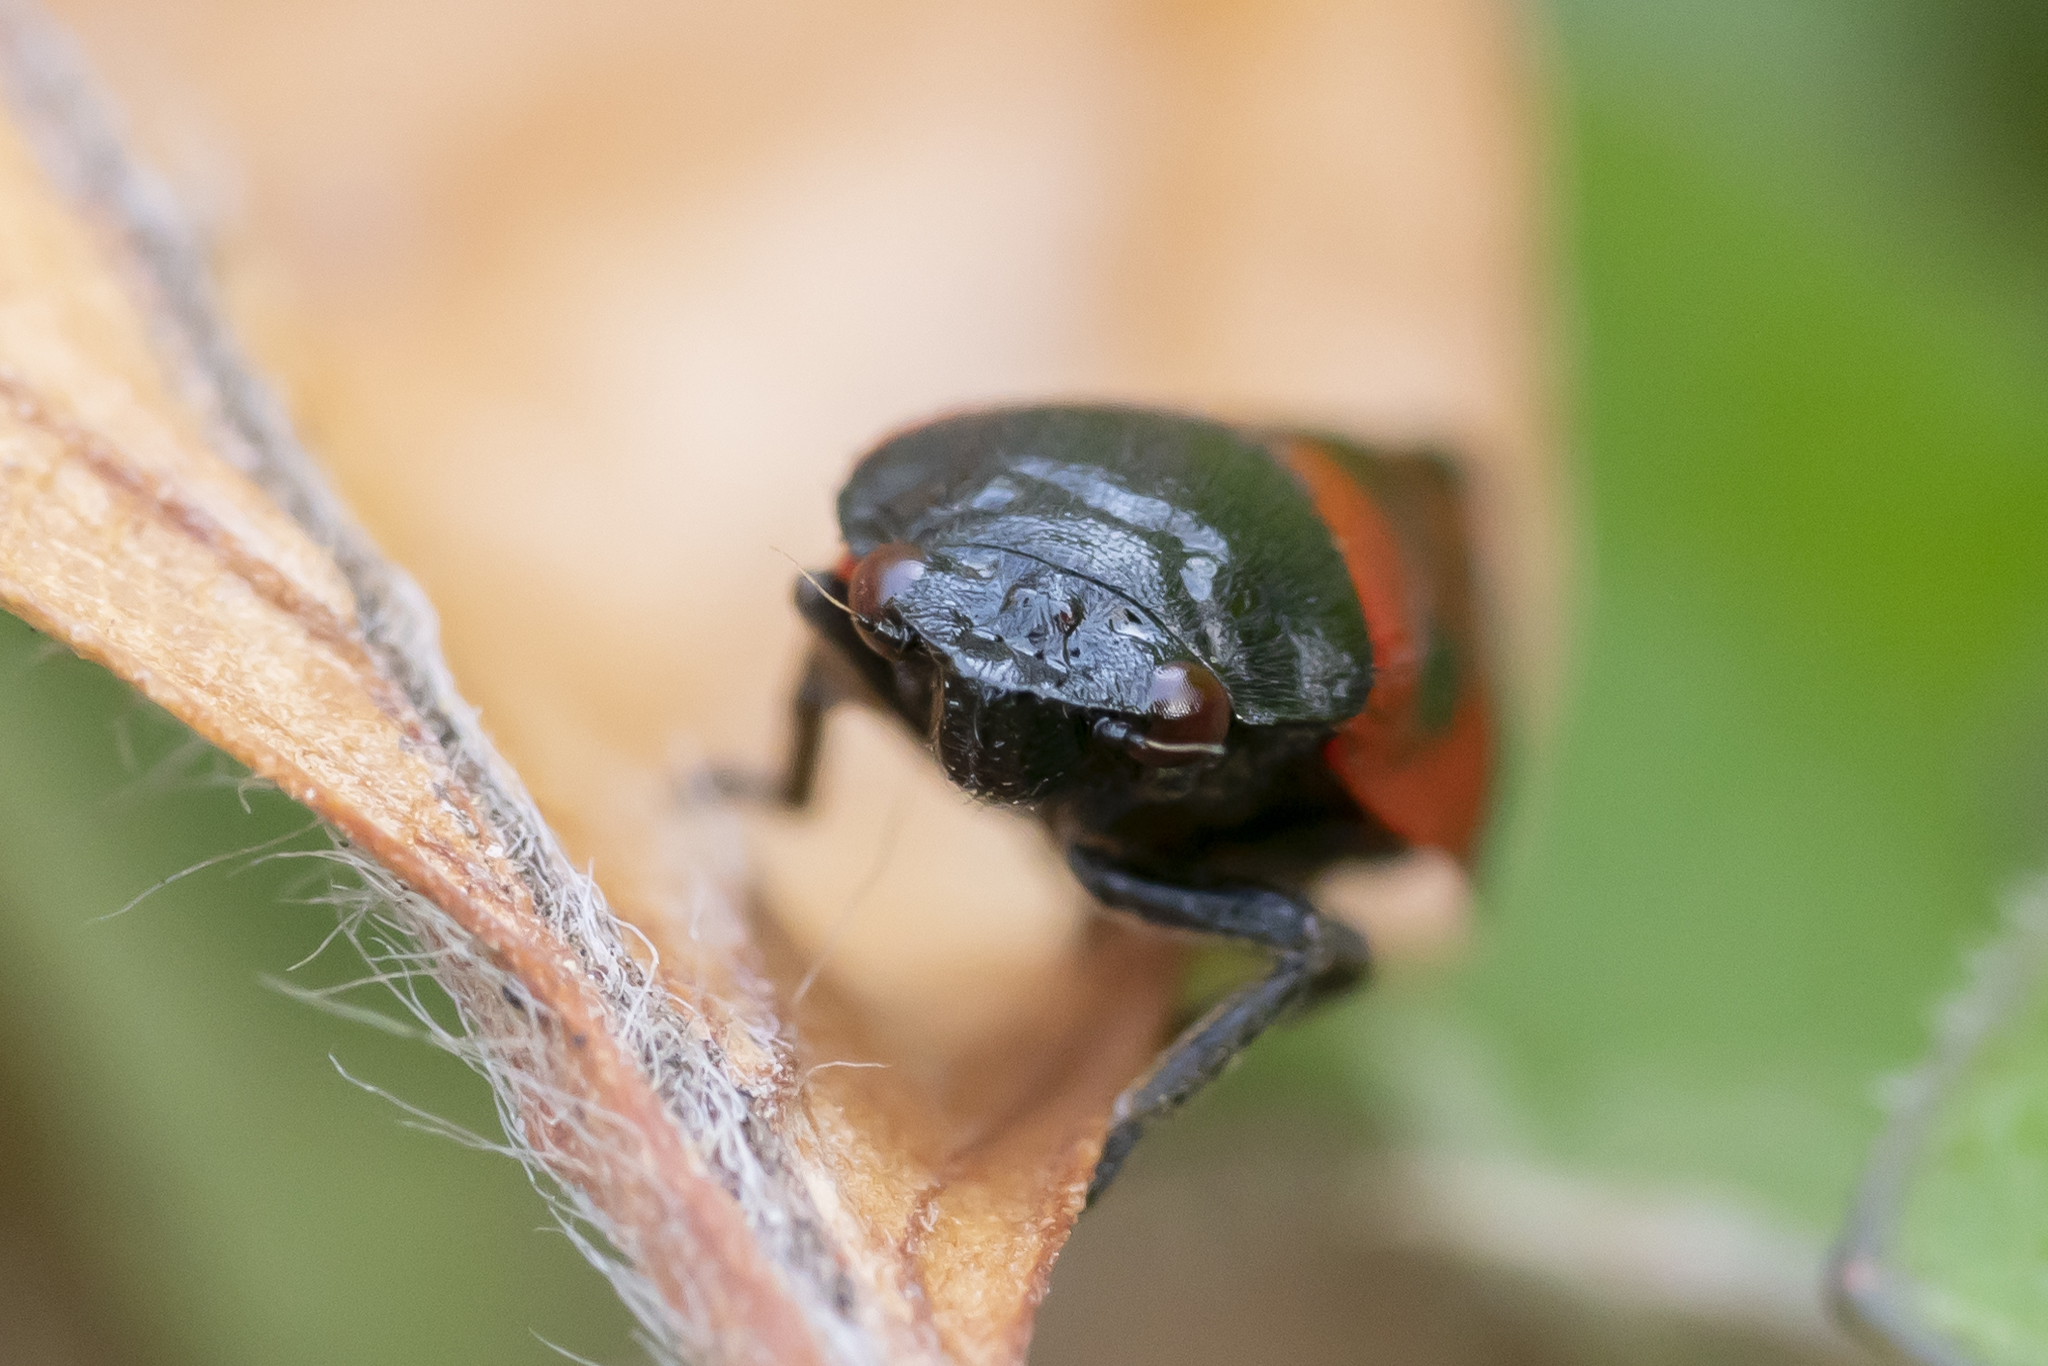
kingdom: Animalia
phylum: Arthropoda
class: Insecta
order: Hemiptera
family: Cercopidae
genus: Haematoloma
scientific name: Haematoloma dorsata
